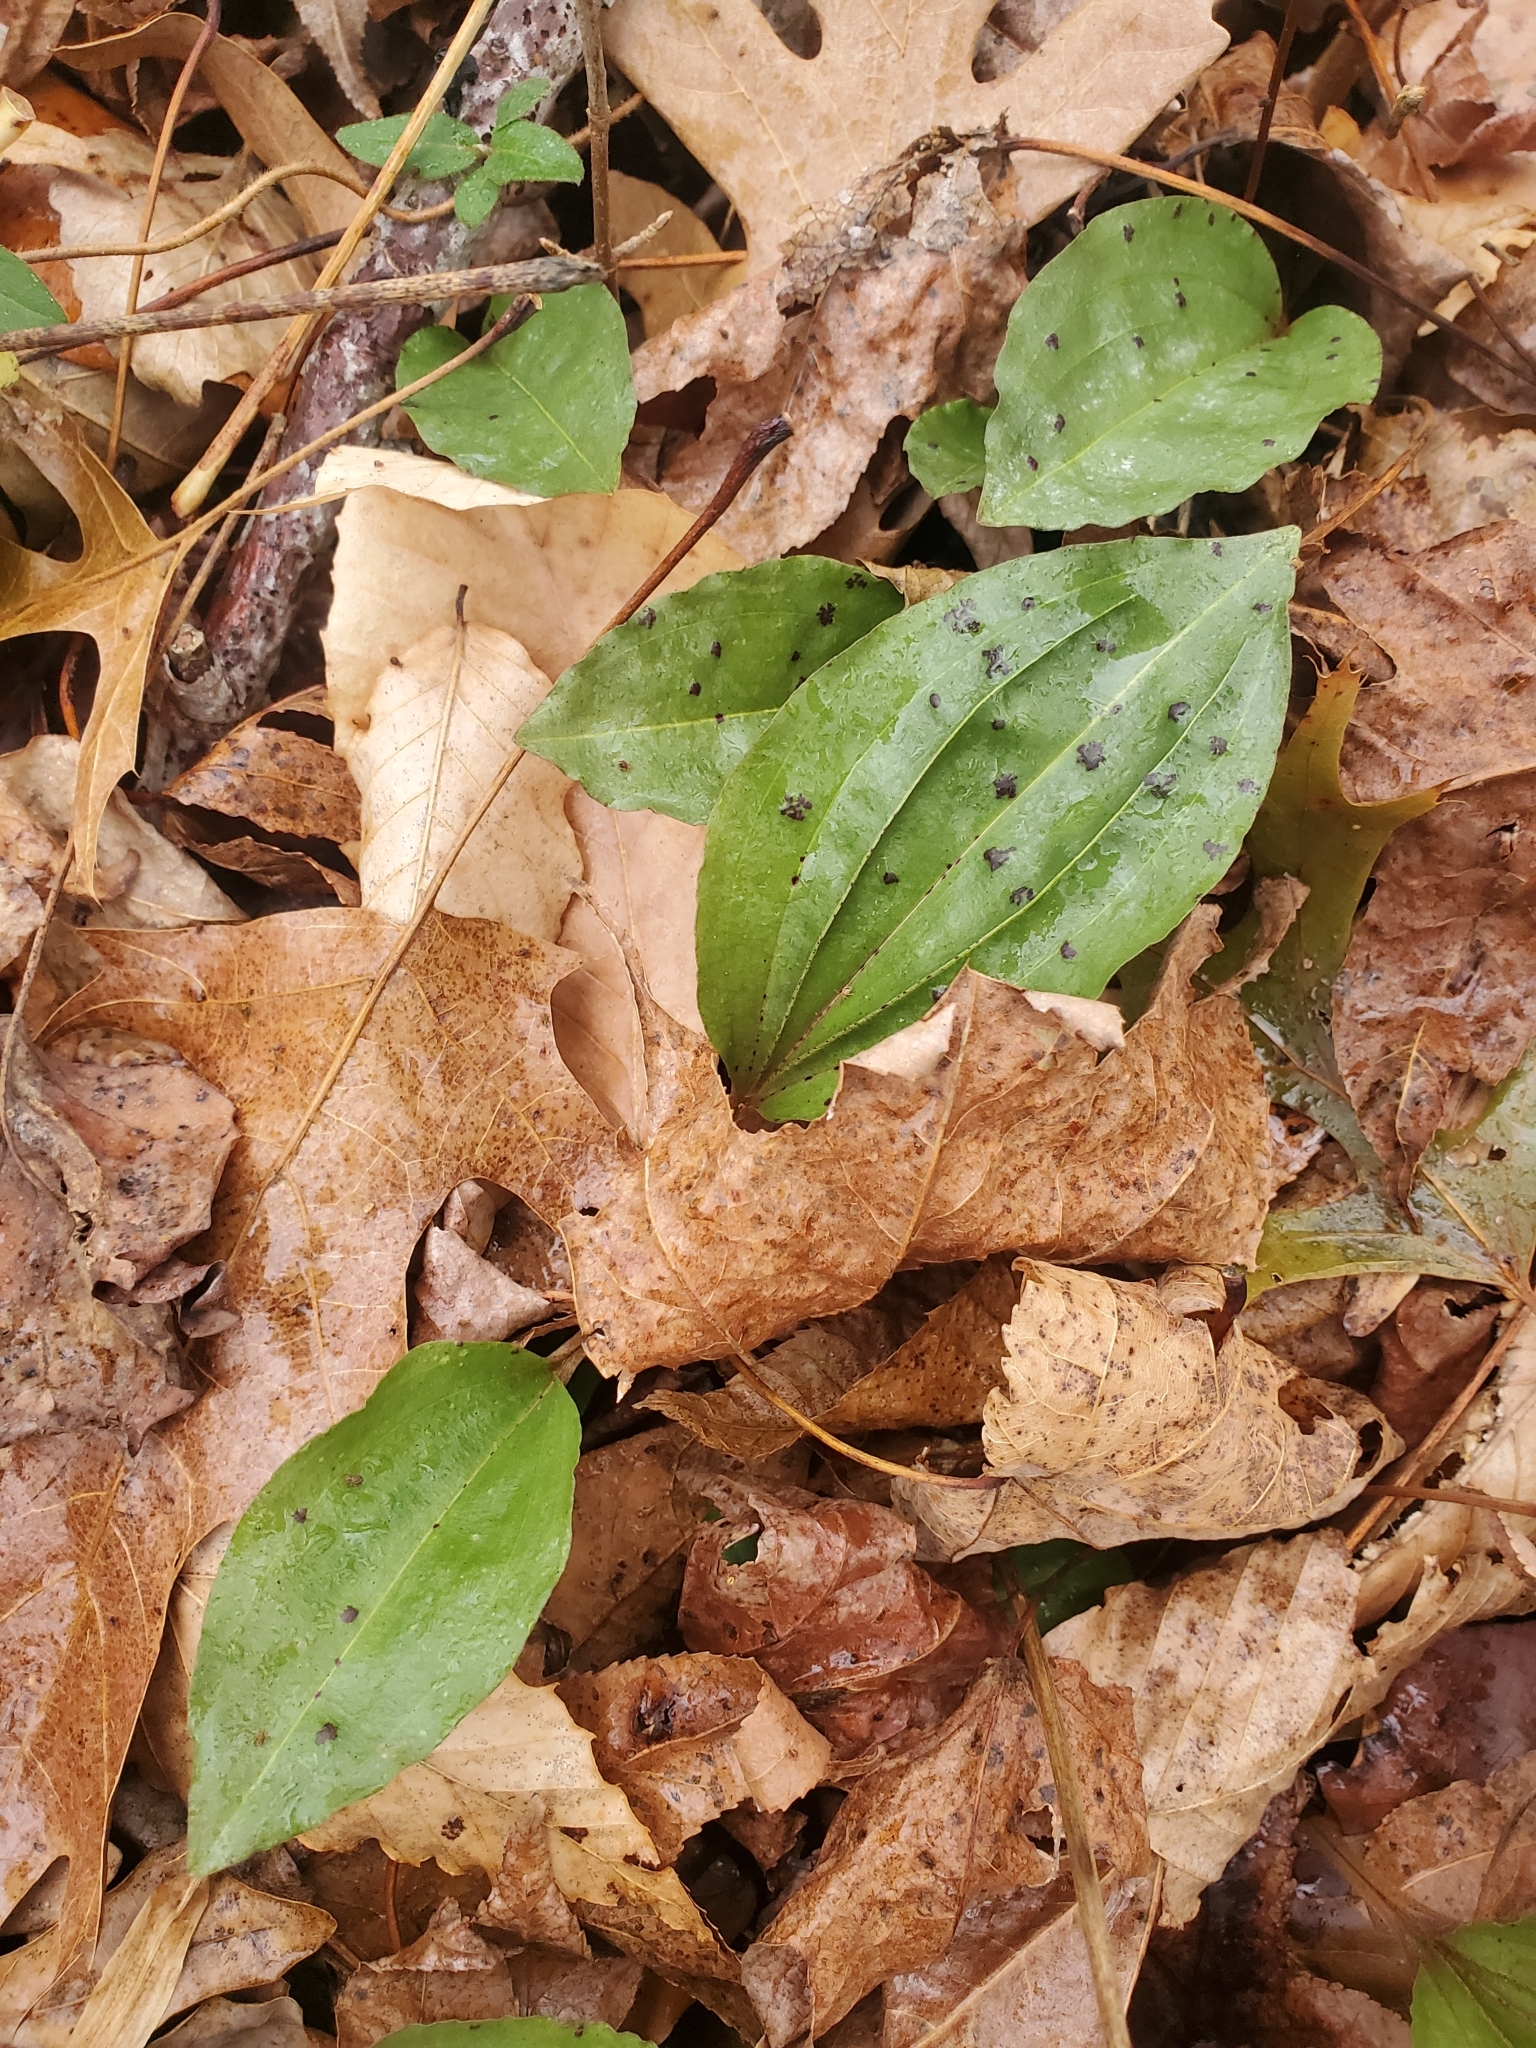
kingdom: Plantae
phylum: Tracheophyta
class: Liliopsida
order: Asparagales
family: Orchidaceae
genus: Tipularia
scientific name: Tipularia discolor
